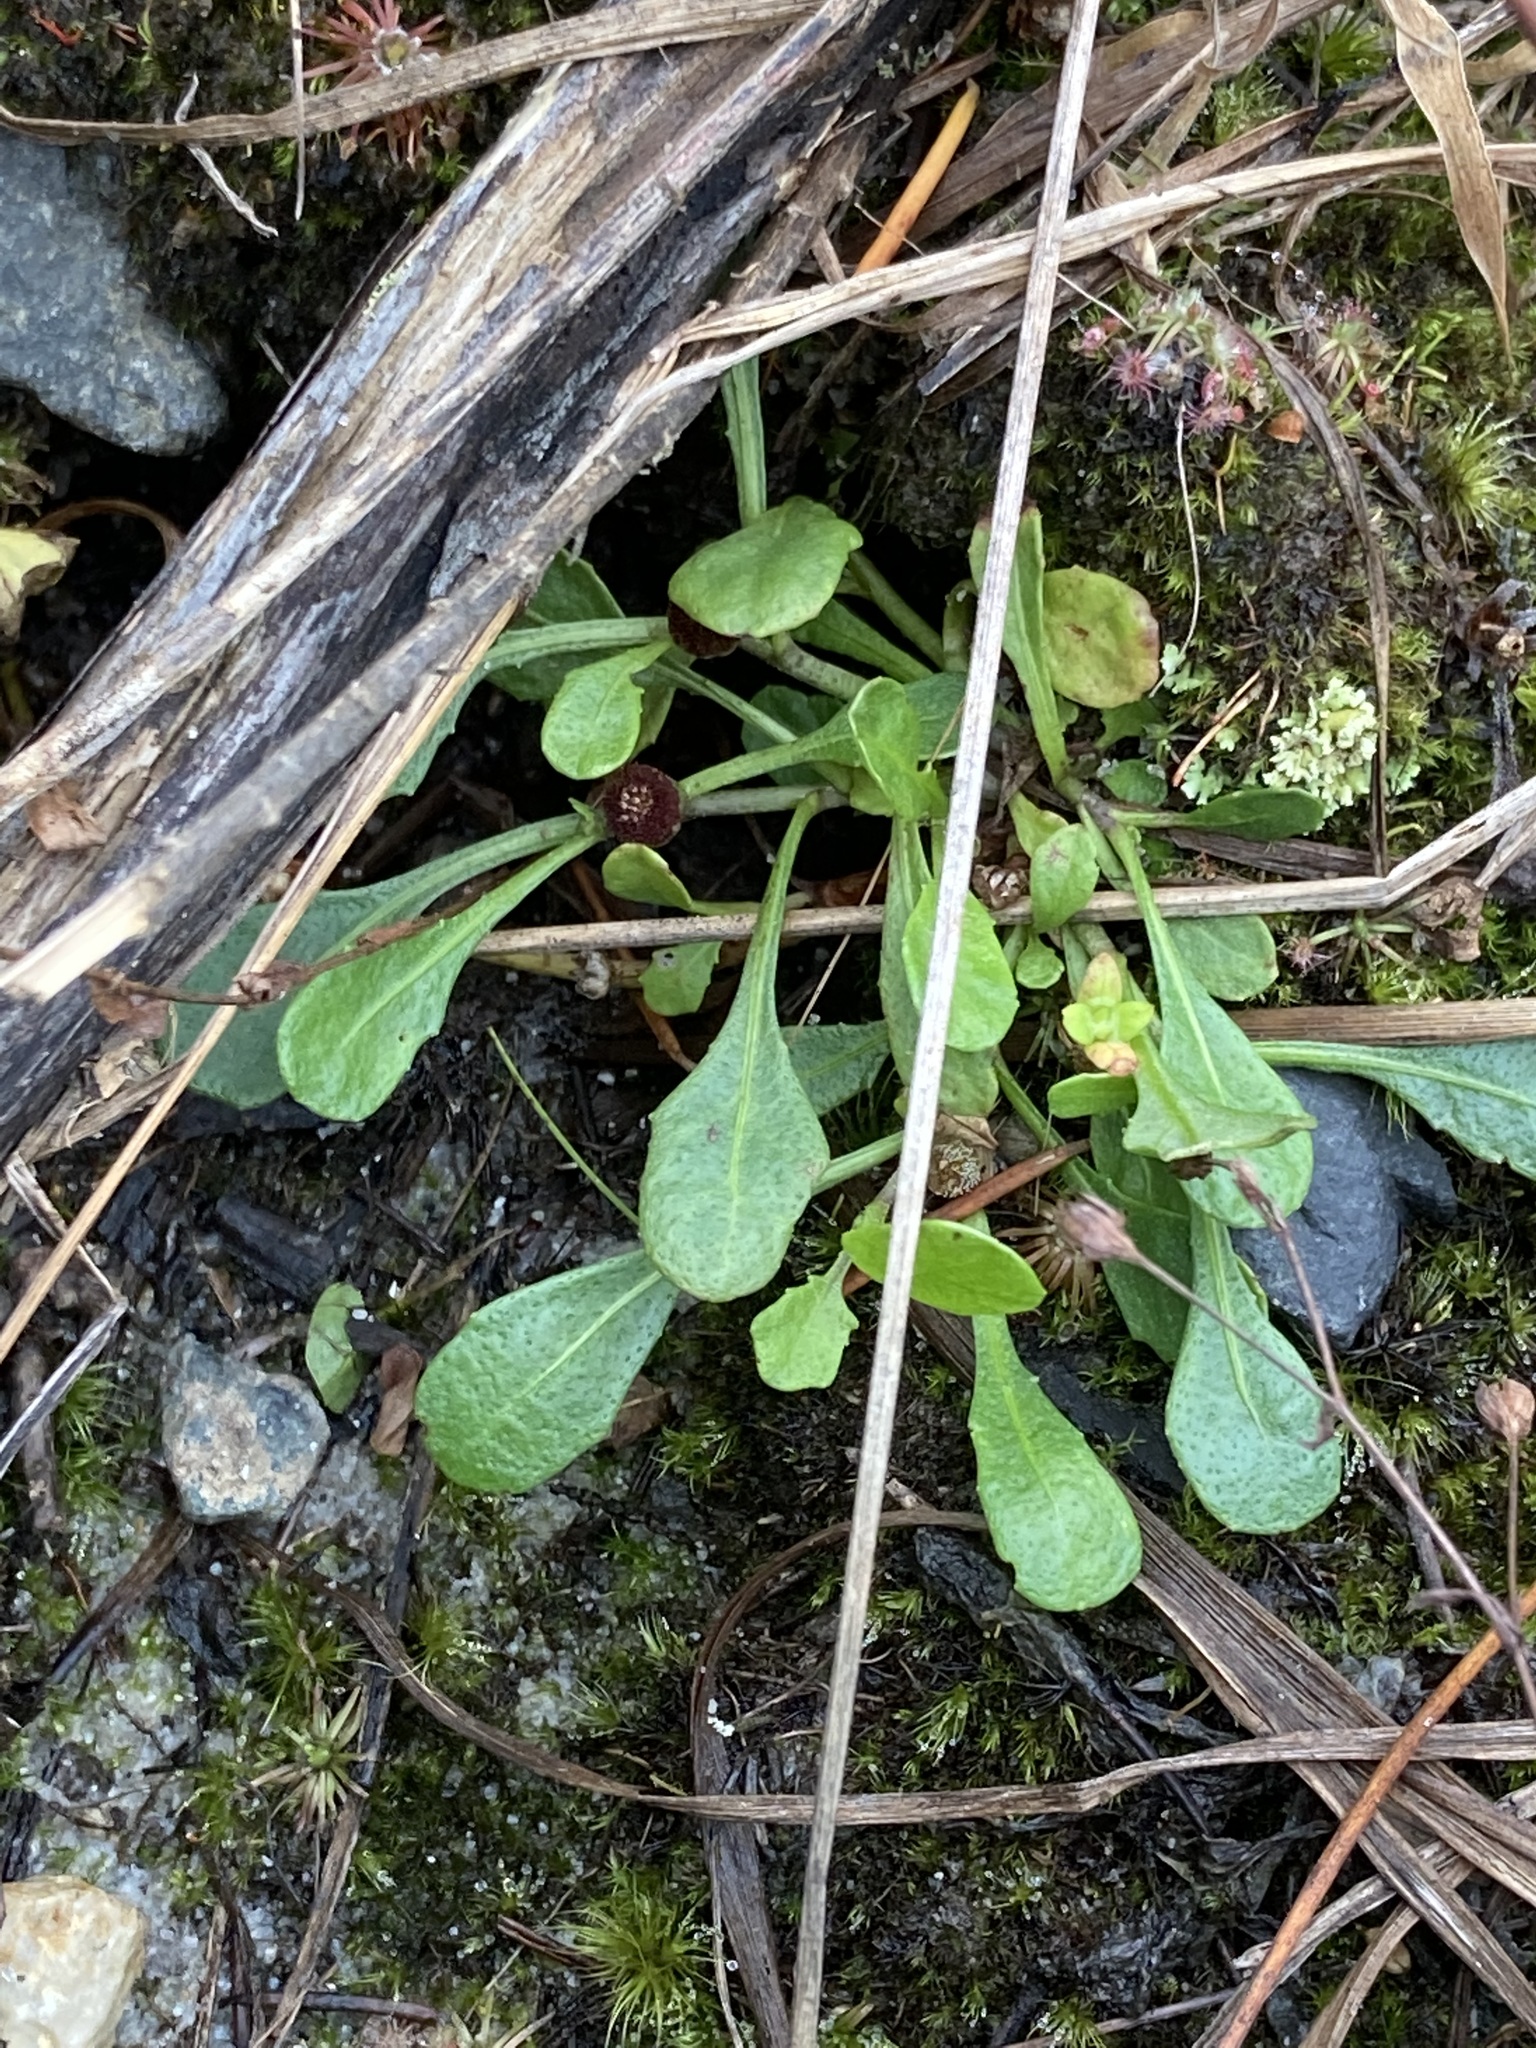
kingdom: Plantae
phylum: Tracheophyta
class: Magnoliopsida
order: Asterales
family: Asteraceae
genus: Sphaeromorphaea
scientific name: Sphaeromorphaea australis
